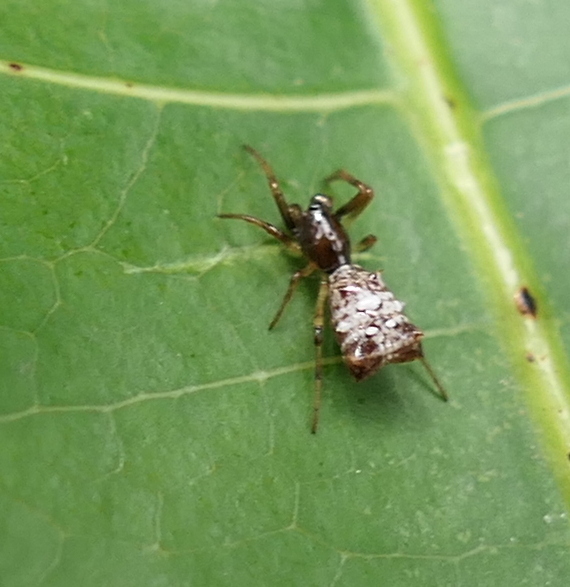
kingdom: Animalia
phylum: Arthropoda
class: Arachnida
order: Araneae
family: Araneidae
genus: Micrathena
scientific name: Micrathena evansi
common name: Orb weavers
